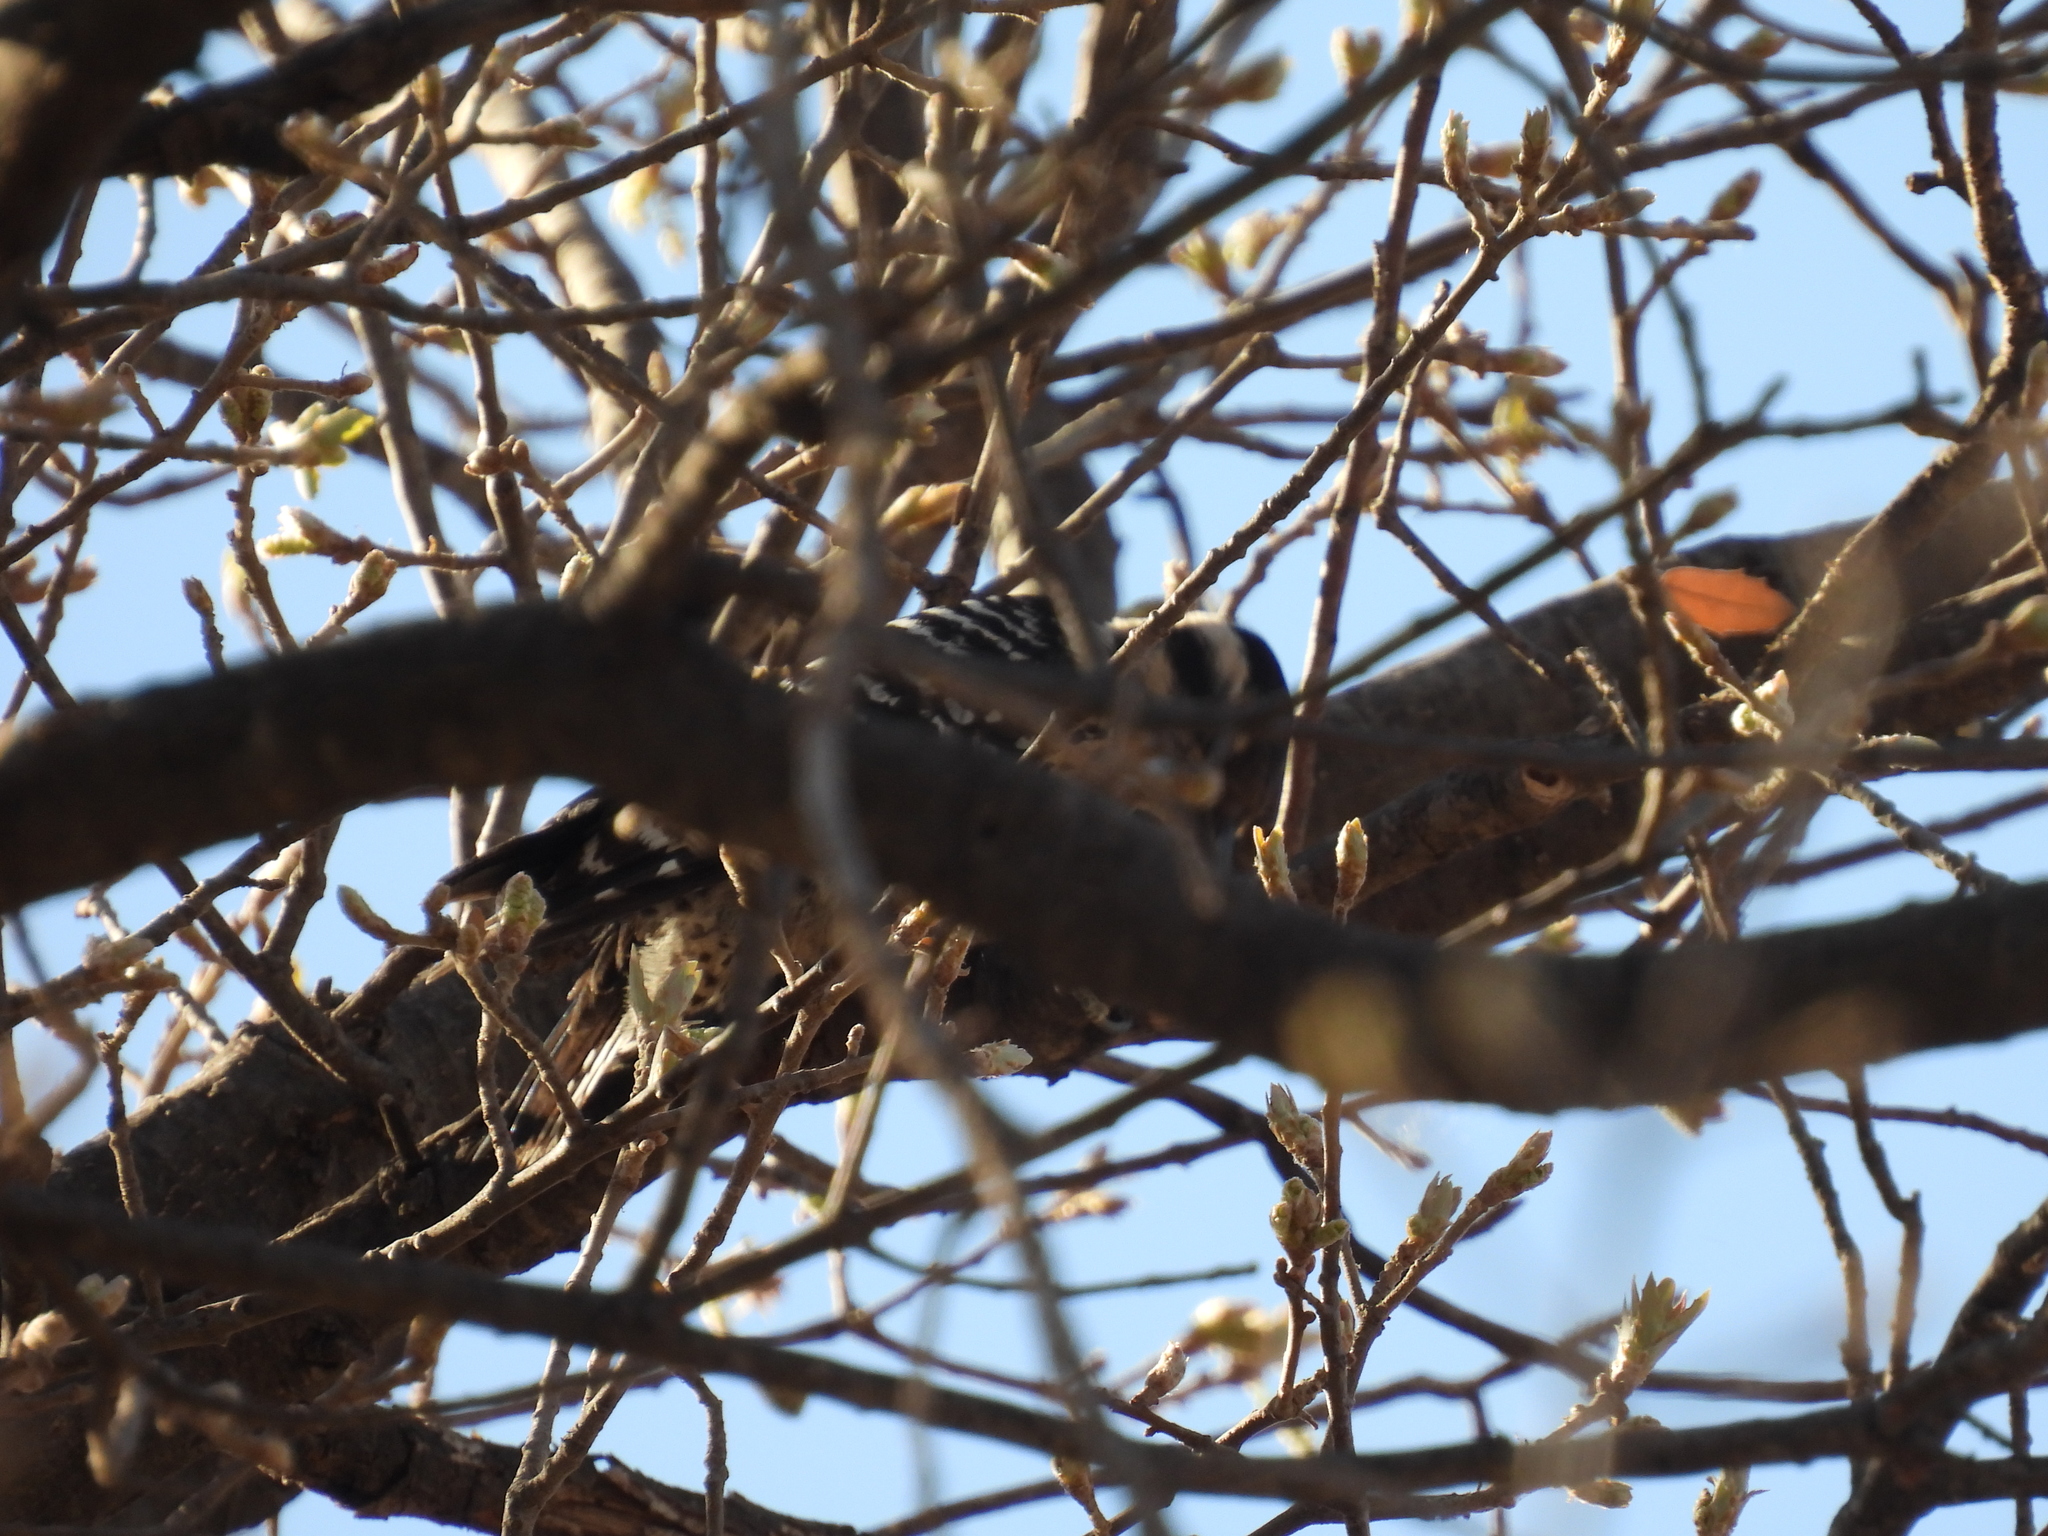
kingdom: Animalia
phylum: Chordata
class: Aves
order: Piciformes
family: Picidae
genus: Dryobates
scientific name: Dryobates scalaris
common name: Ladder-backed woodpecker
